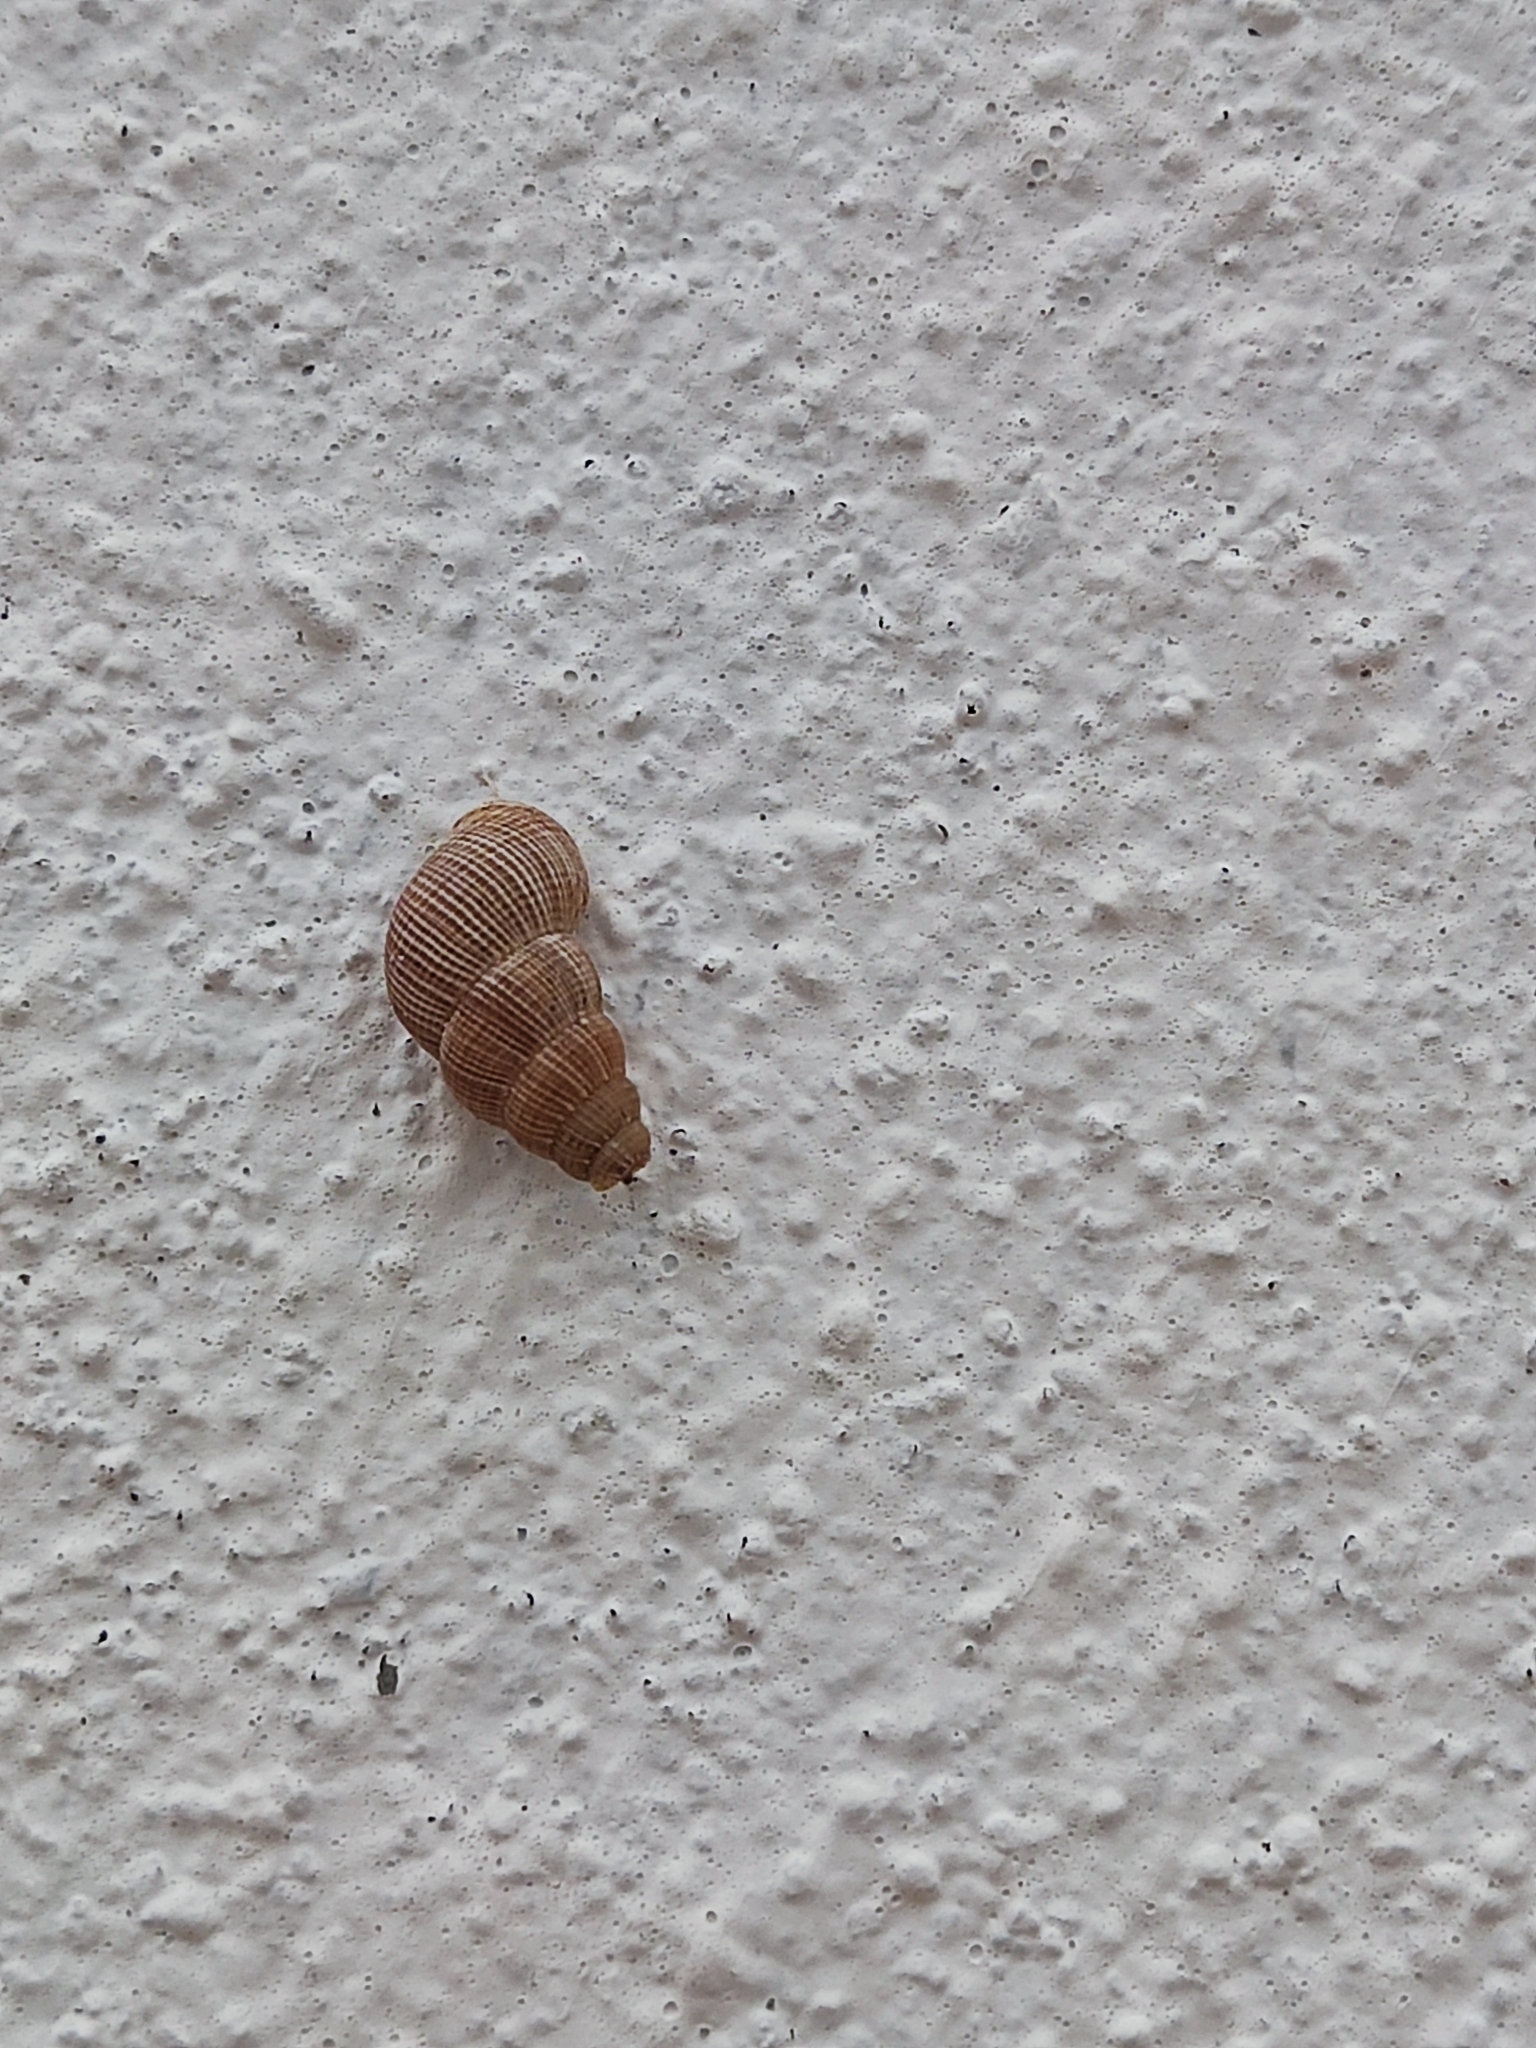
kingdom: Animalia
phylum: Mollusca
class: Gastropoda
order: Littorinimorpha
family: Annulariidae
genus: Tudora
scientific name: Tudora aurantia
